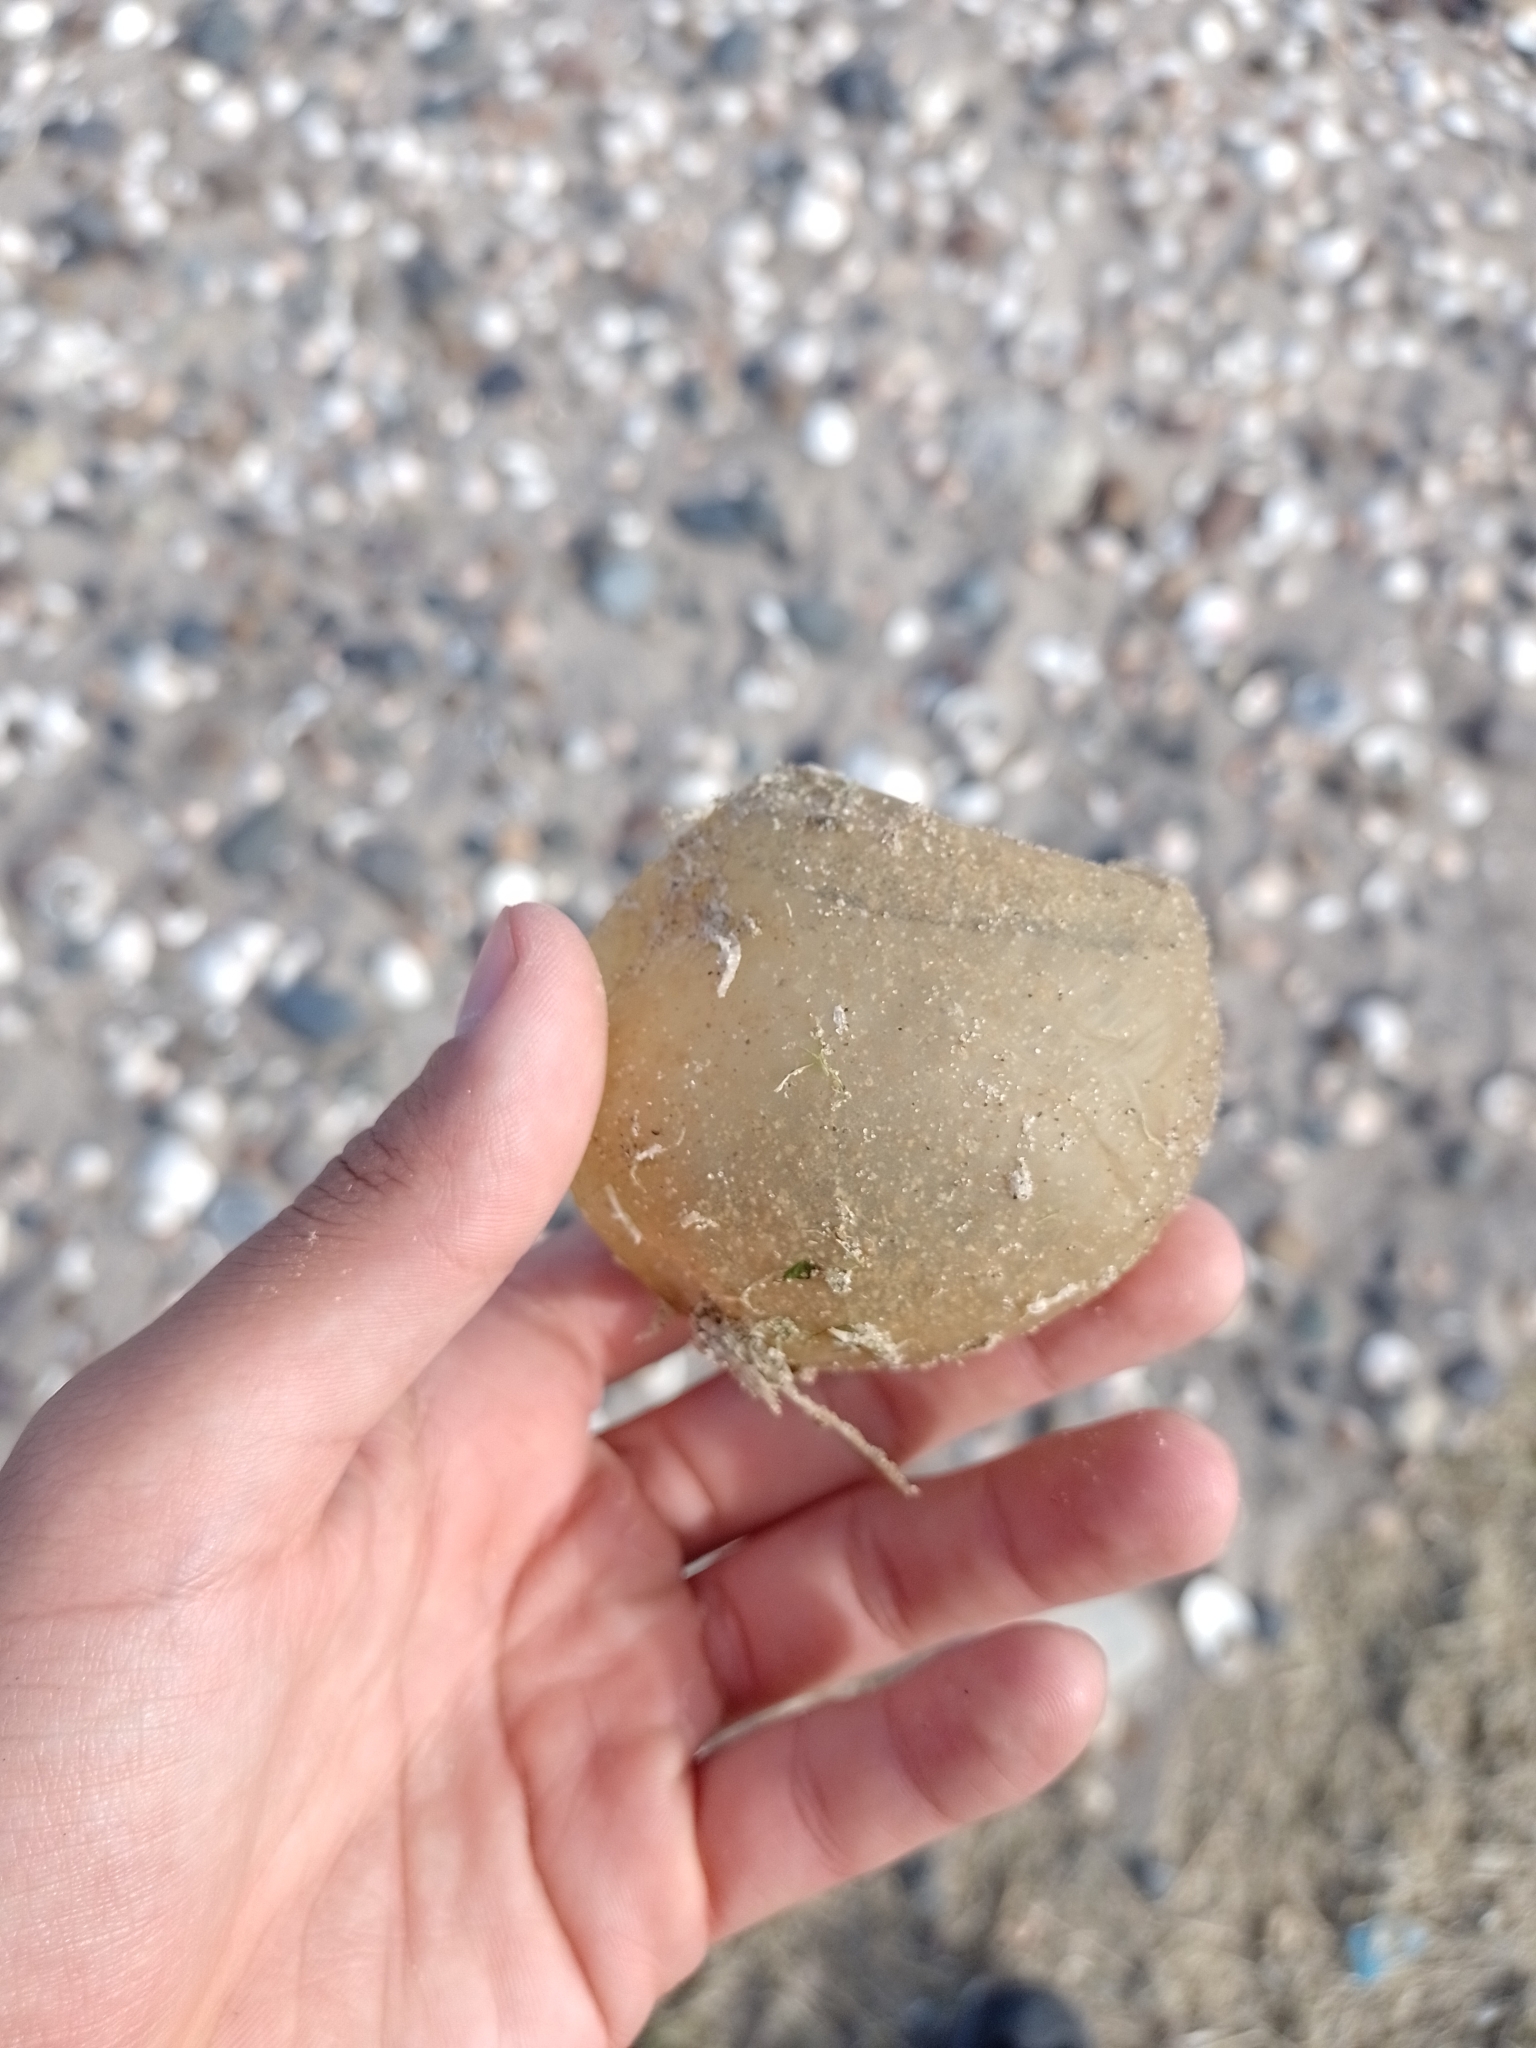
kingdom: Animalia
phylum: Mollusca
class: Gastropoda
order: Neogastropoda
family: Volutidae
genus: Pachycymbiola
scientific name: Pachycymbiola brasiliana
